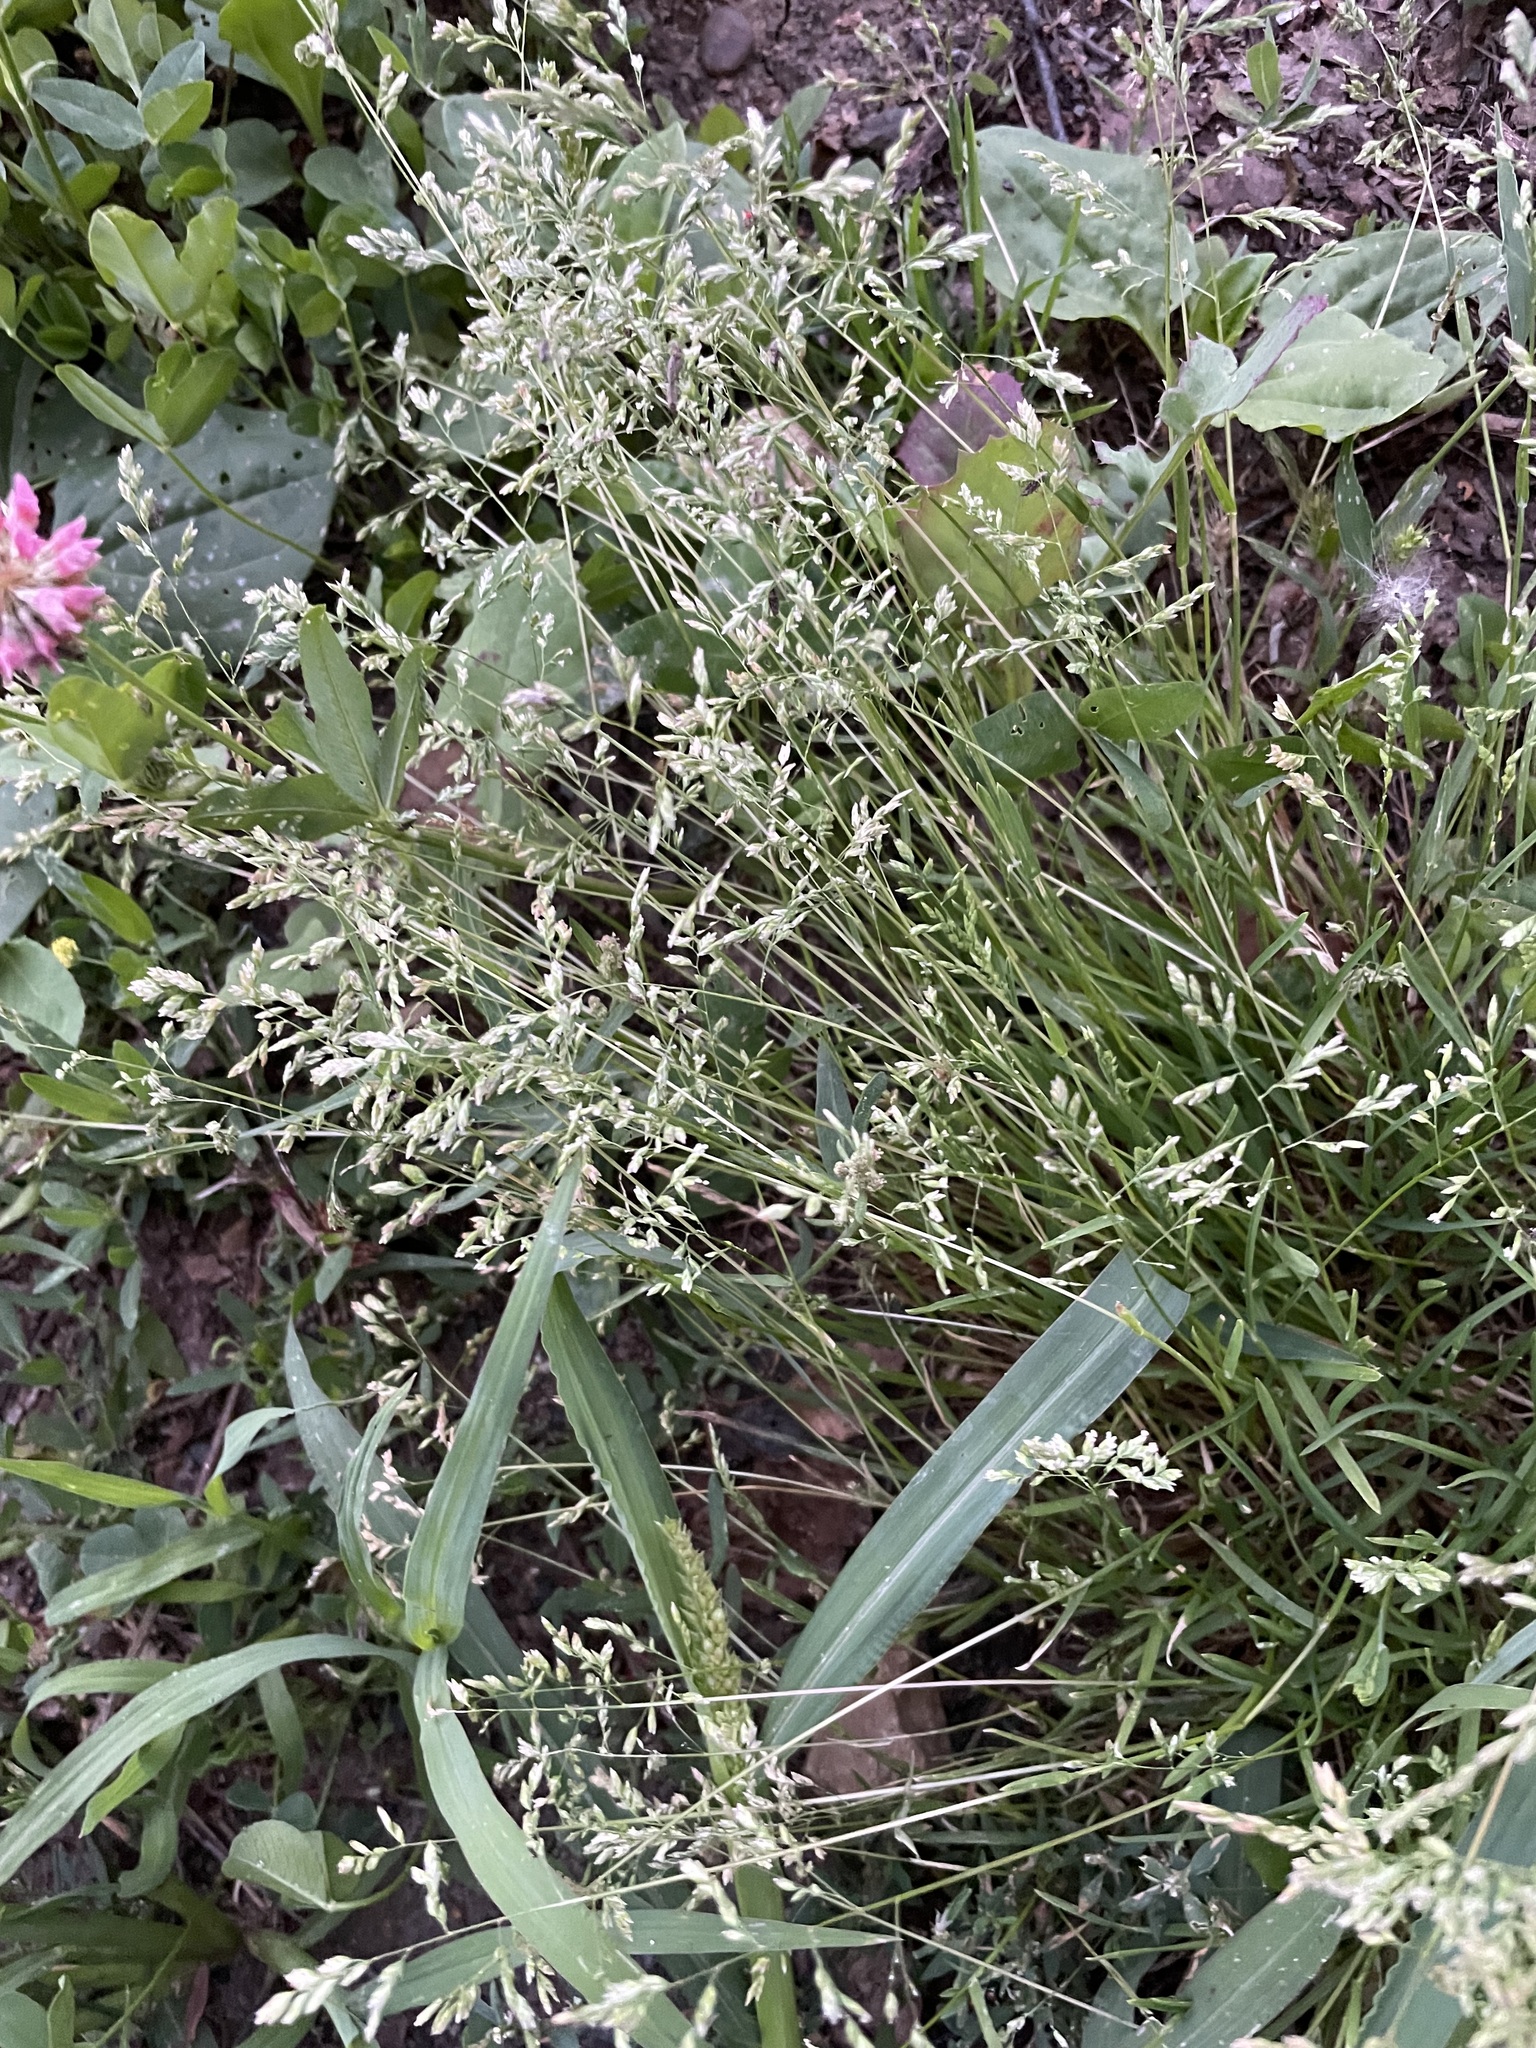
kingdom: Plantae
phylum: Tracheophyta
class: Liliopsida
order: Poales
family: Poaceae
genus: Poa
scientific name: Poa annua
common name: Annual bluegrass
